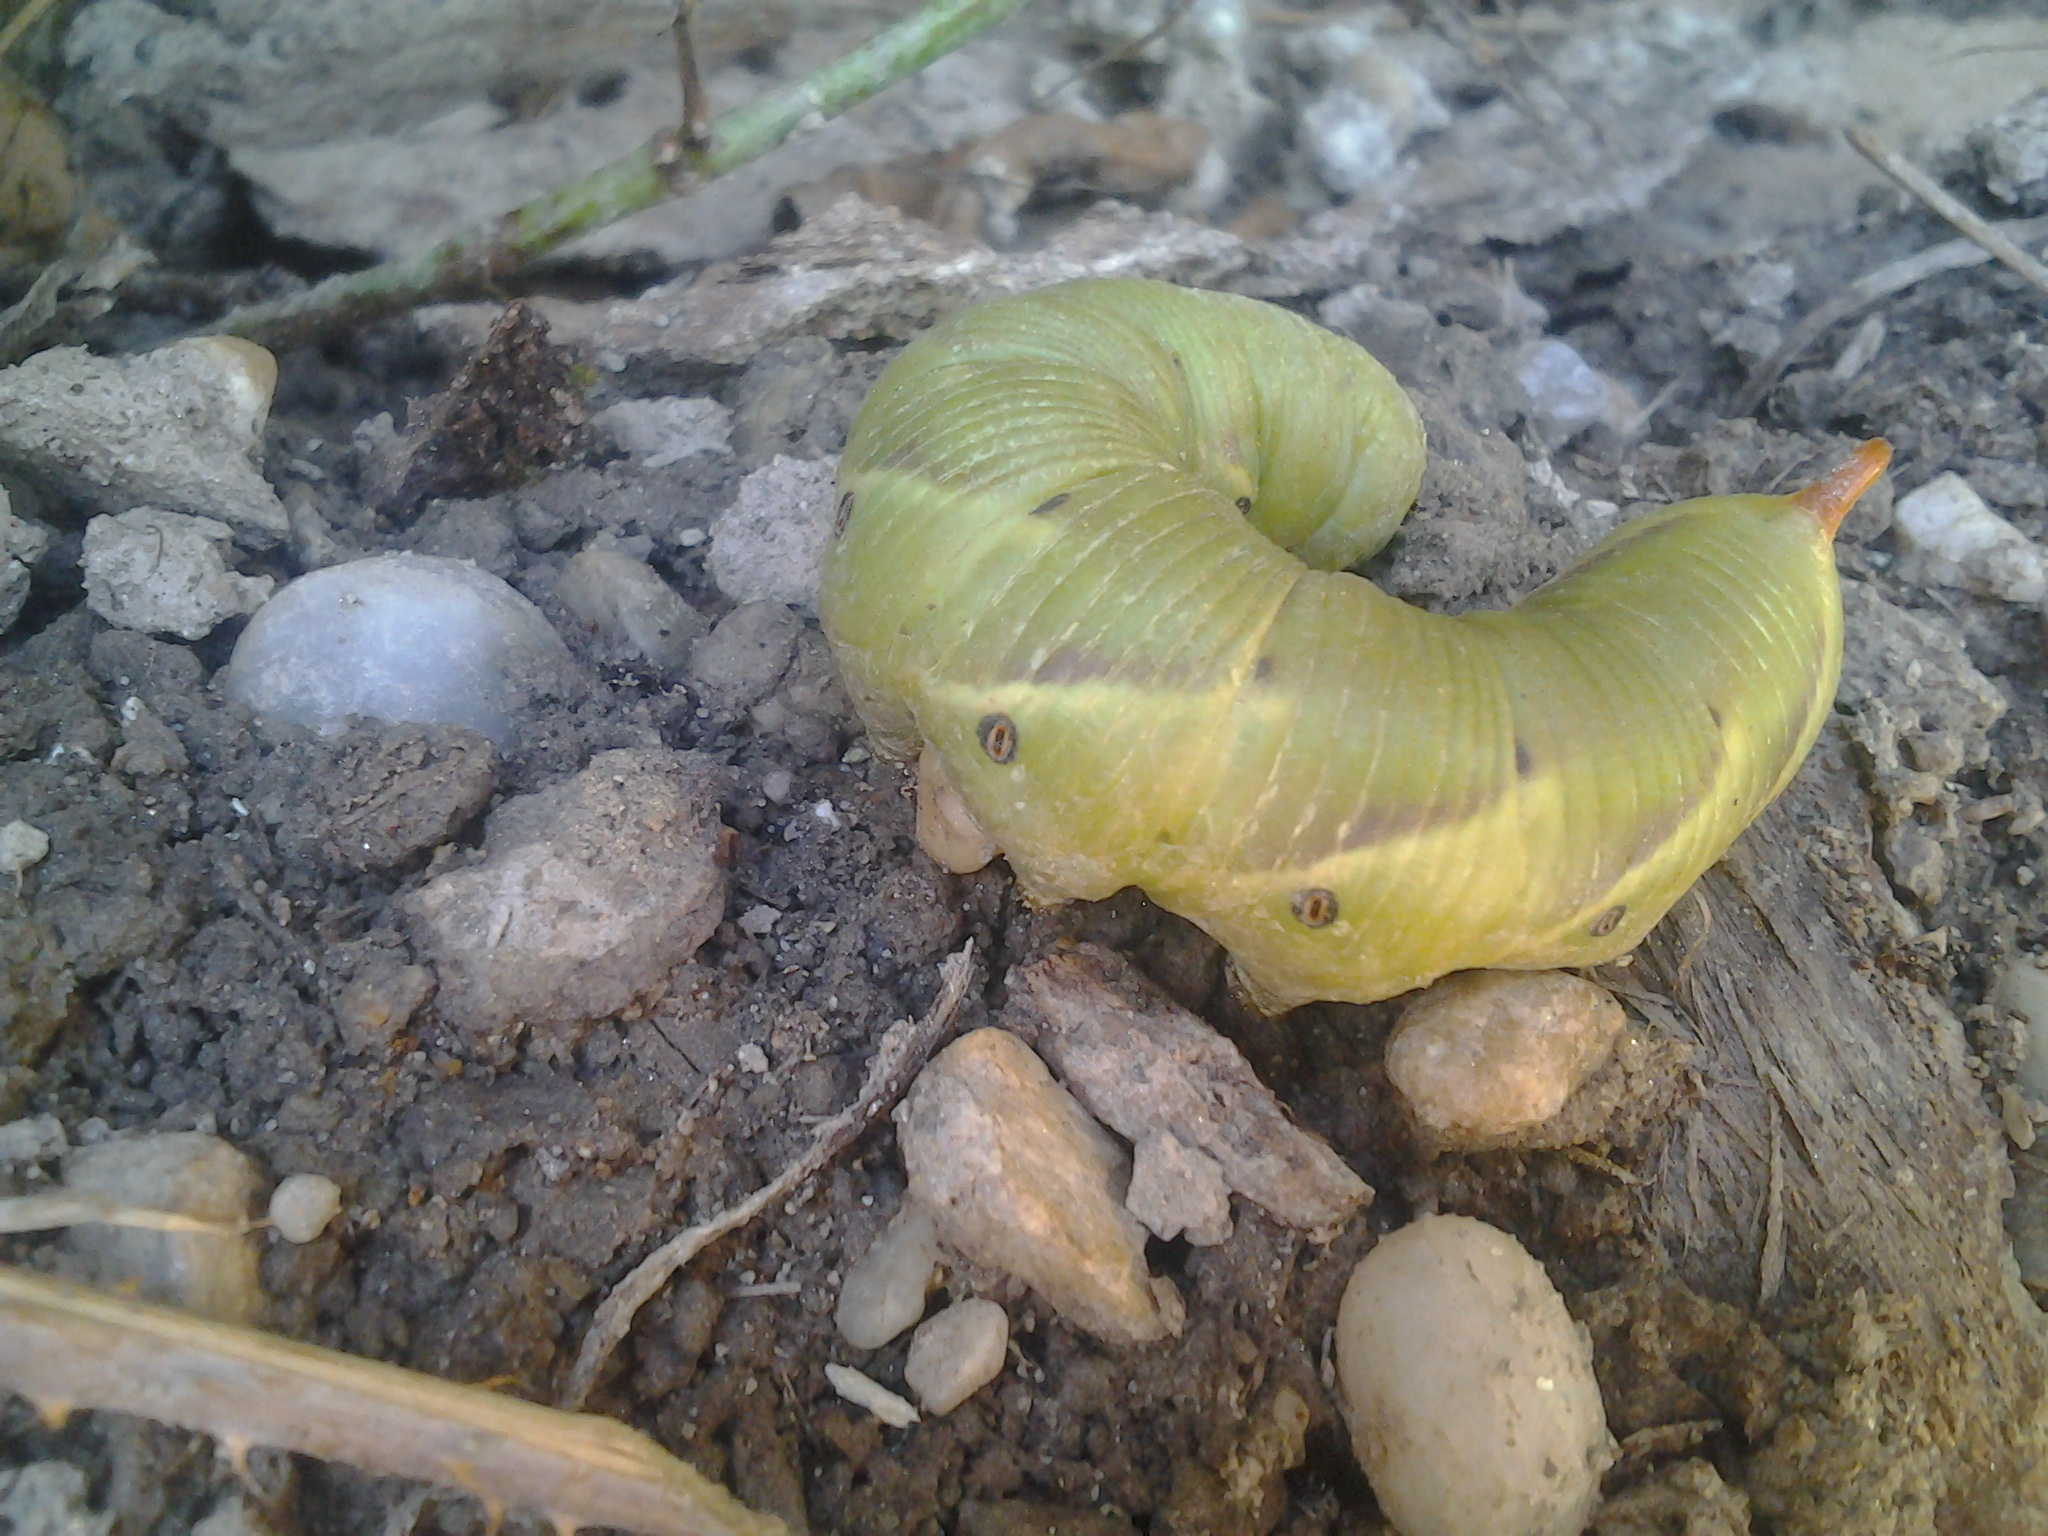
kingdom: Animalia
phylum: Arthropoda
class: Insecta
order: Lepidoptera
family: Sphingidae
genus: Agrius
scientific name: Agrius convolvuli
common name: Convolvulus hawkmoth
